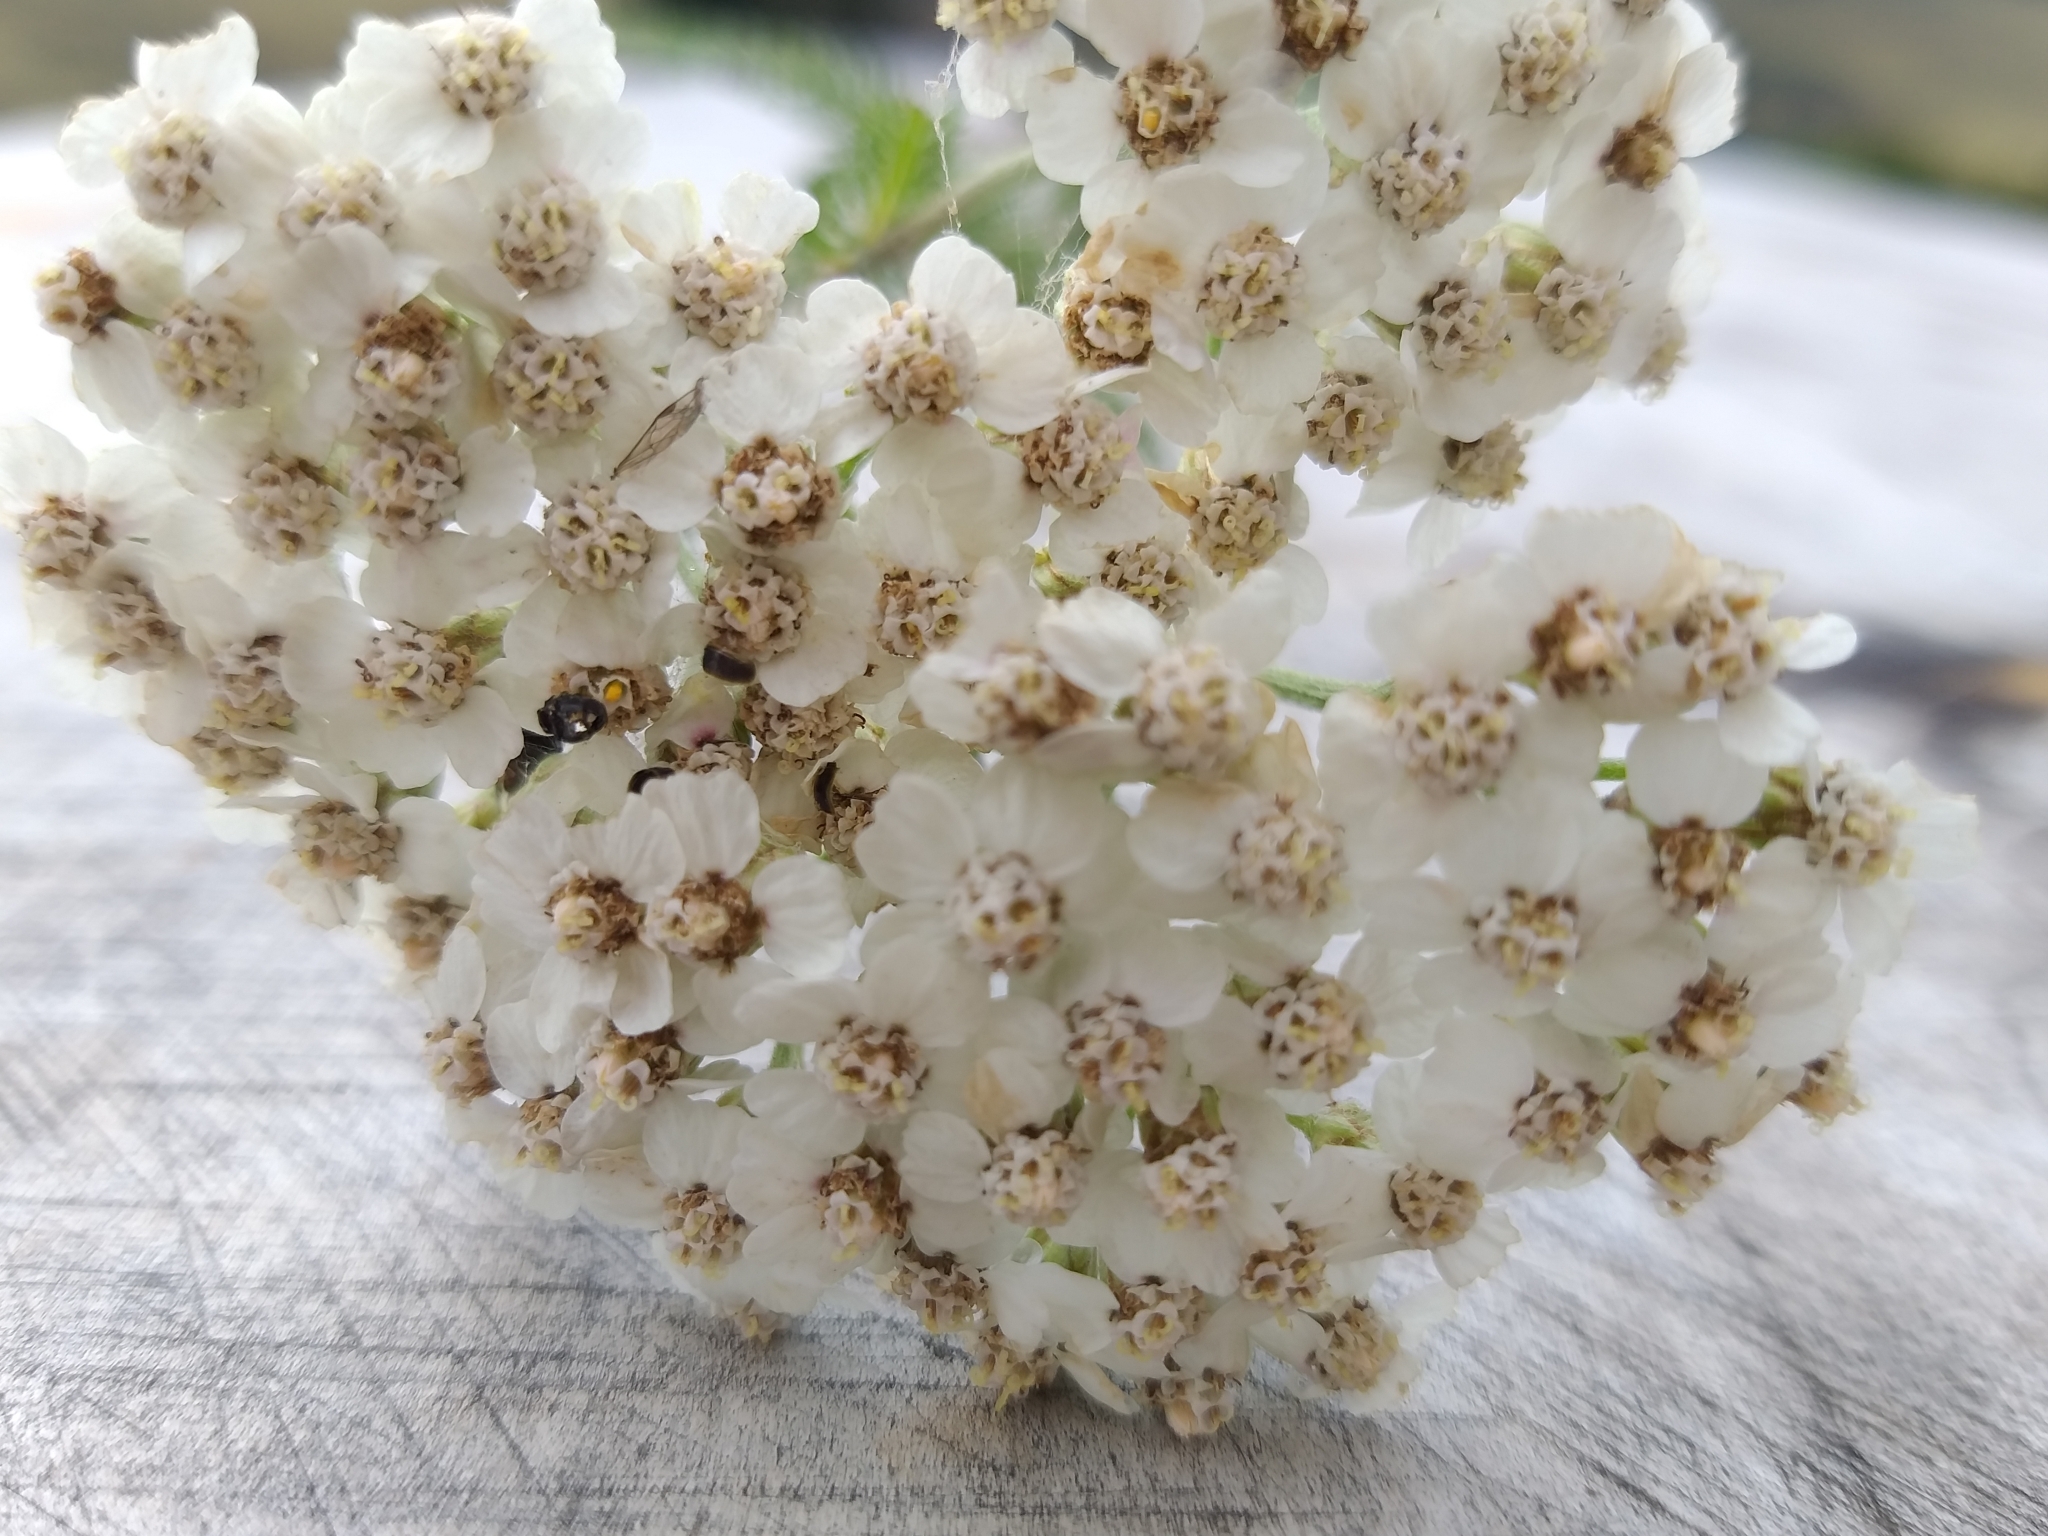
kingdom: Plantae
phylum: Tracheophyta
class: Magnoliopsida
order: Asterales
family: Asteraceae
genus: Achillea
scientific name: Achillea millefolium
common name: Yarrow
